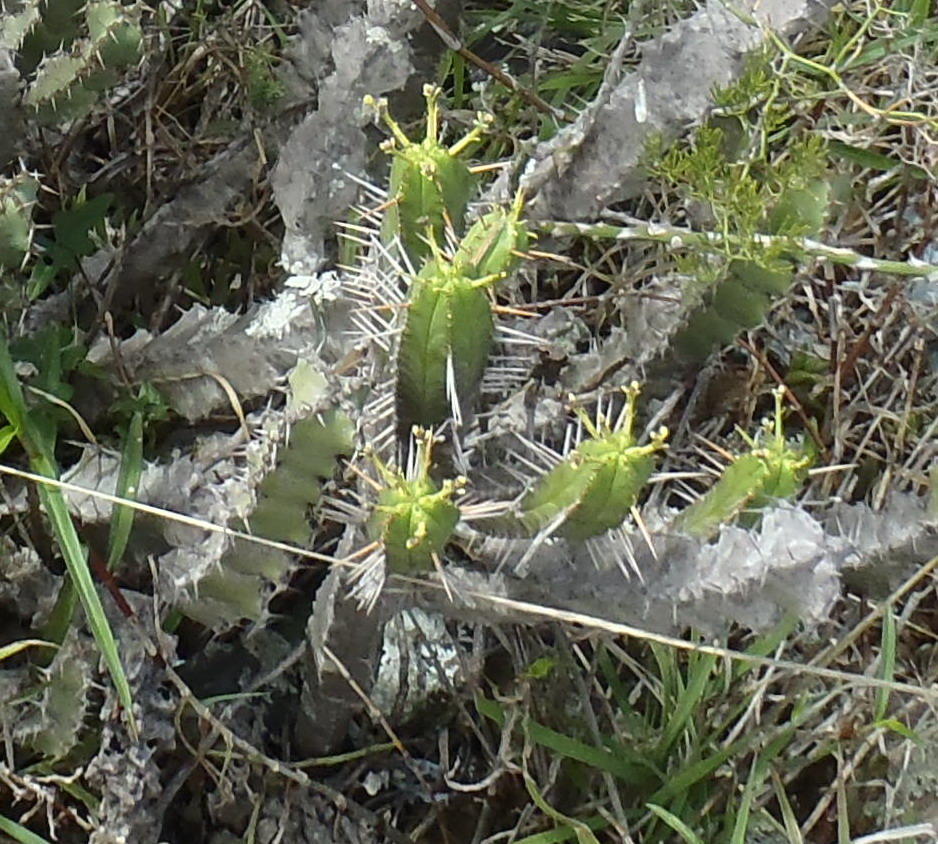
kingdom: Plantae
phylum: Tracheophyta
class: Magnoliopsida
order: Malpighiales
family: Euphorbiaceae
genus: Euphorbia
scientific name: Euphorbia pentagona
